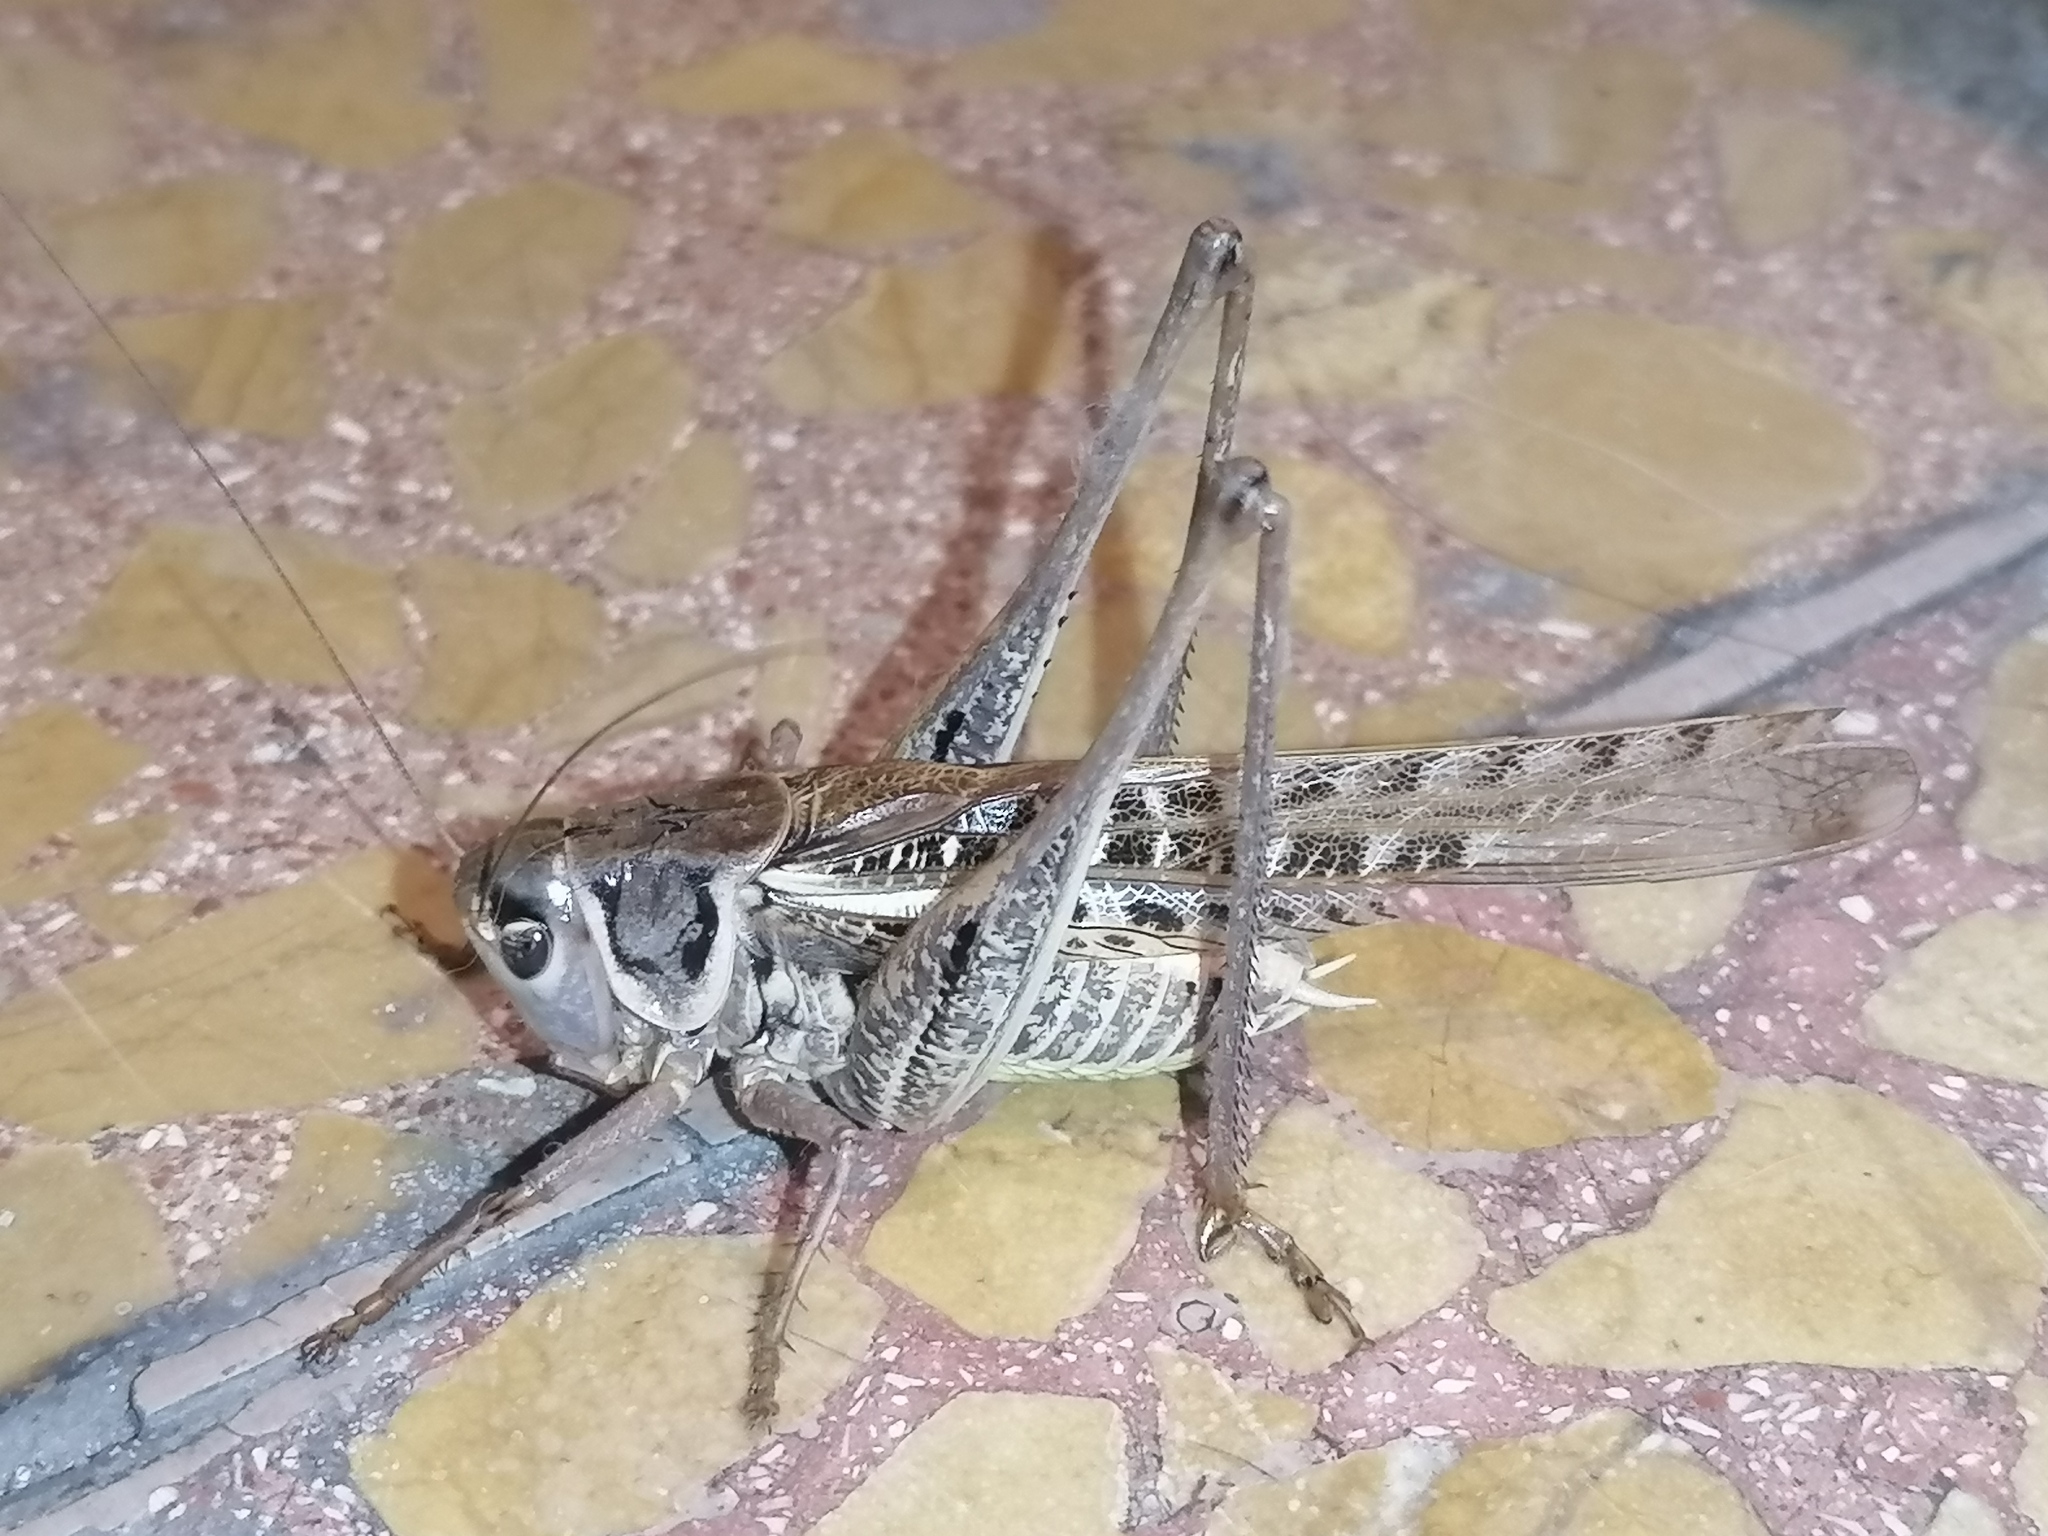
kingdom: Animalia
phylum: Arthropoda
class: Insecta
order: Orthoptera
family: Tettigoniidae
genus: Decticus
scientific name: Decticus albifrons
